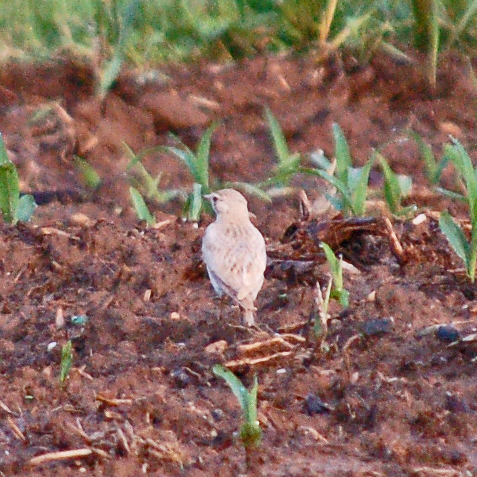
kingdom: Animalia
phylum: Chordata
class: Aves
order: Passeriformes
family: Alaudidae
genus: Eremophila
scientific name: Eremophila alpestris
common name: Horned lark
